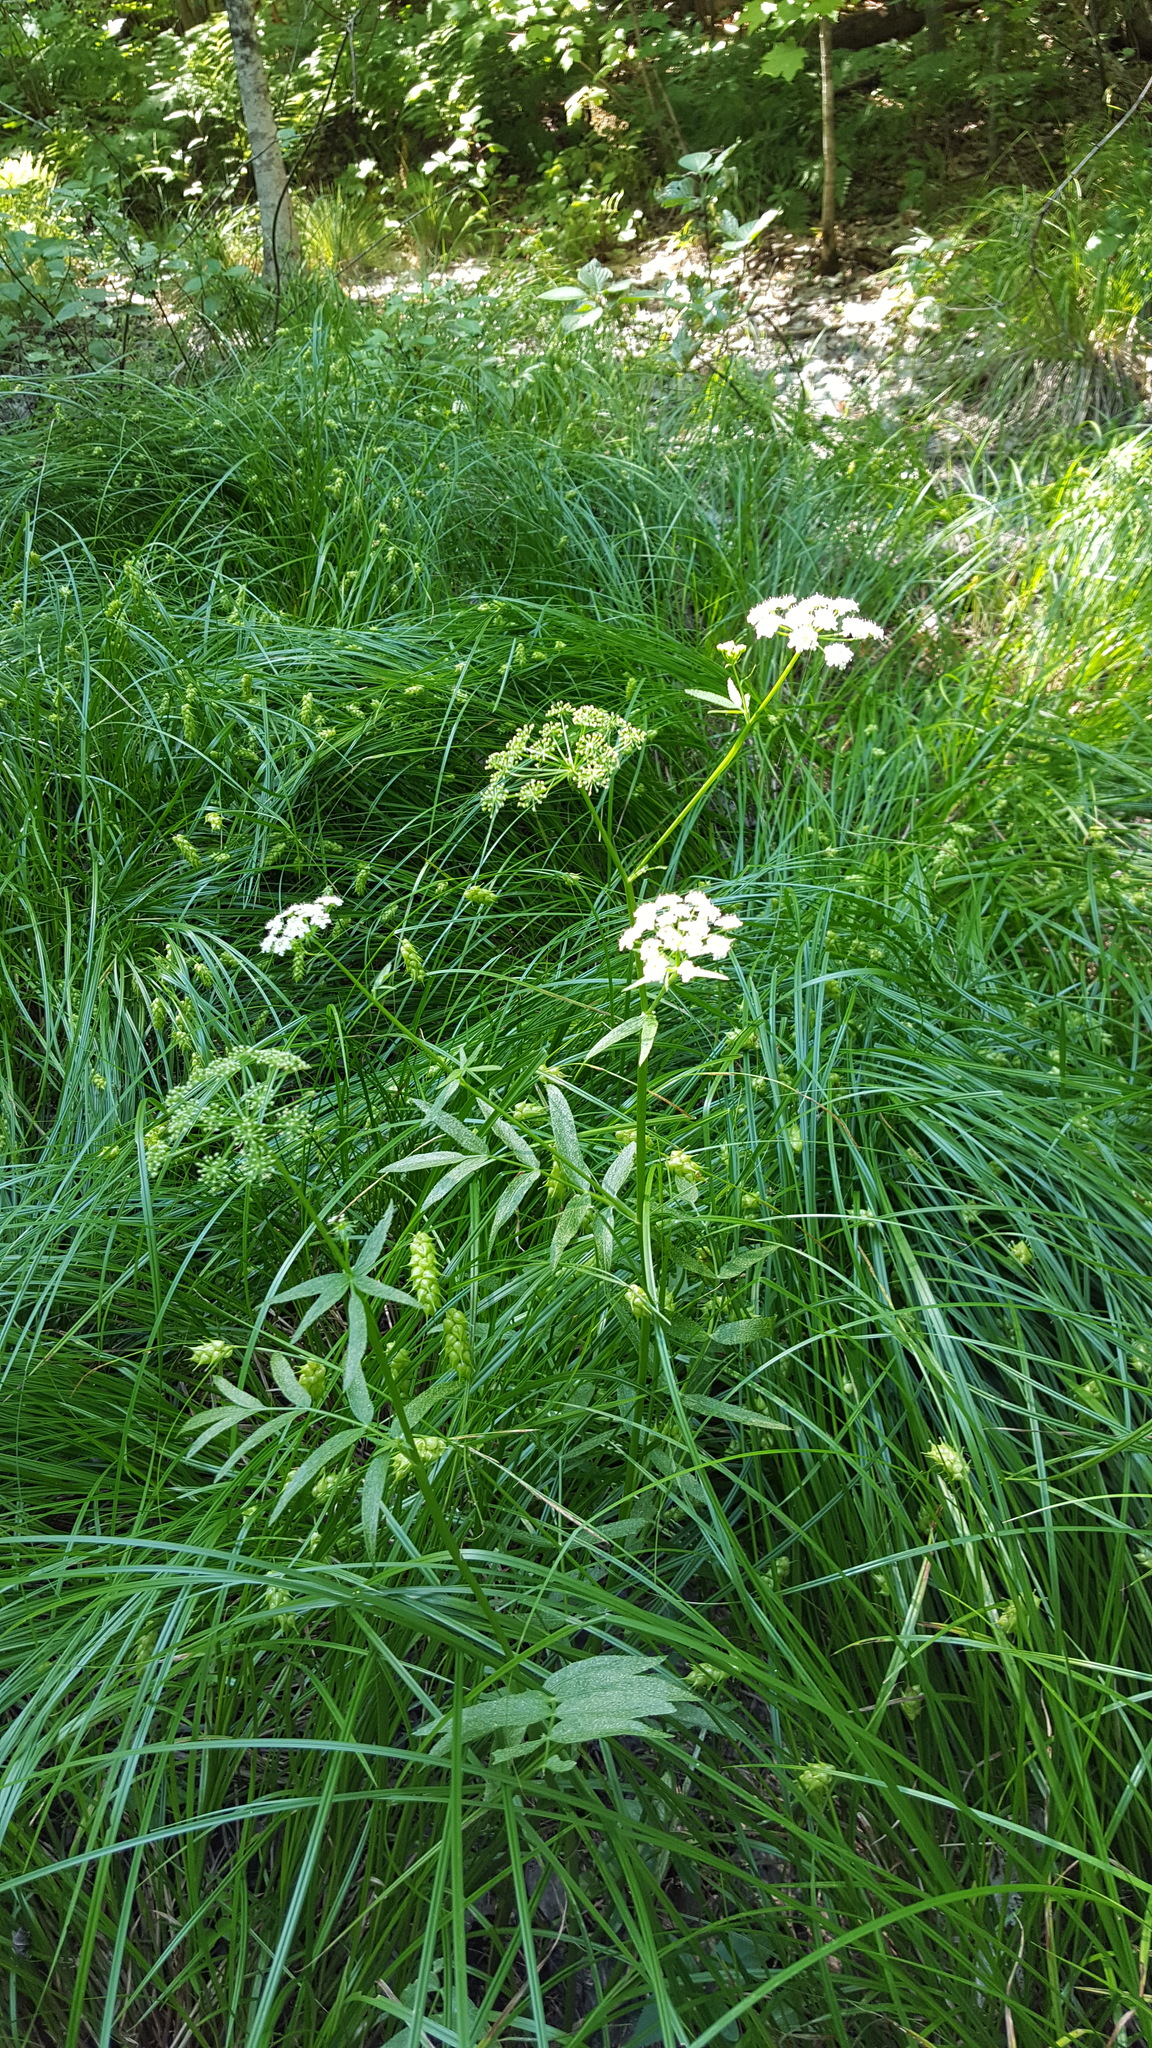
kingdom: Plantae
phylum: Tracheophyta
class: Magnoliopsida
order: Apiales
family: Apiaceae
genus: Sium
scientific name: Sium suave
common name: Hemlock water-parsnip
